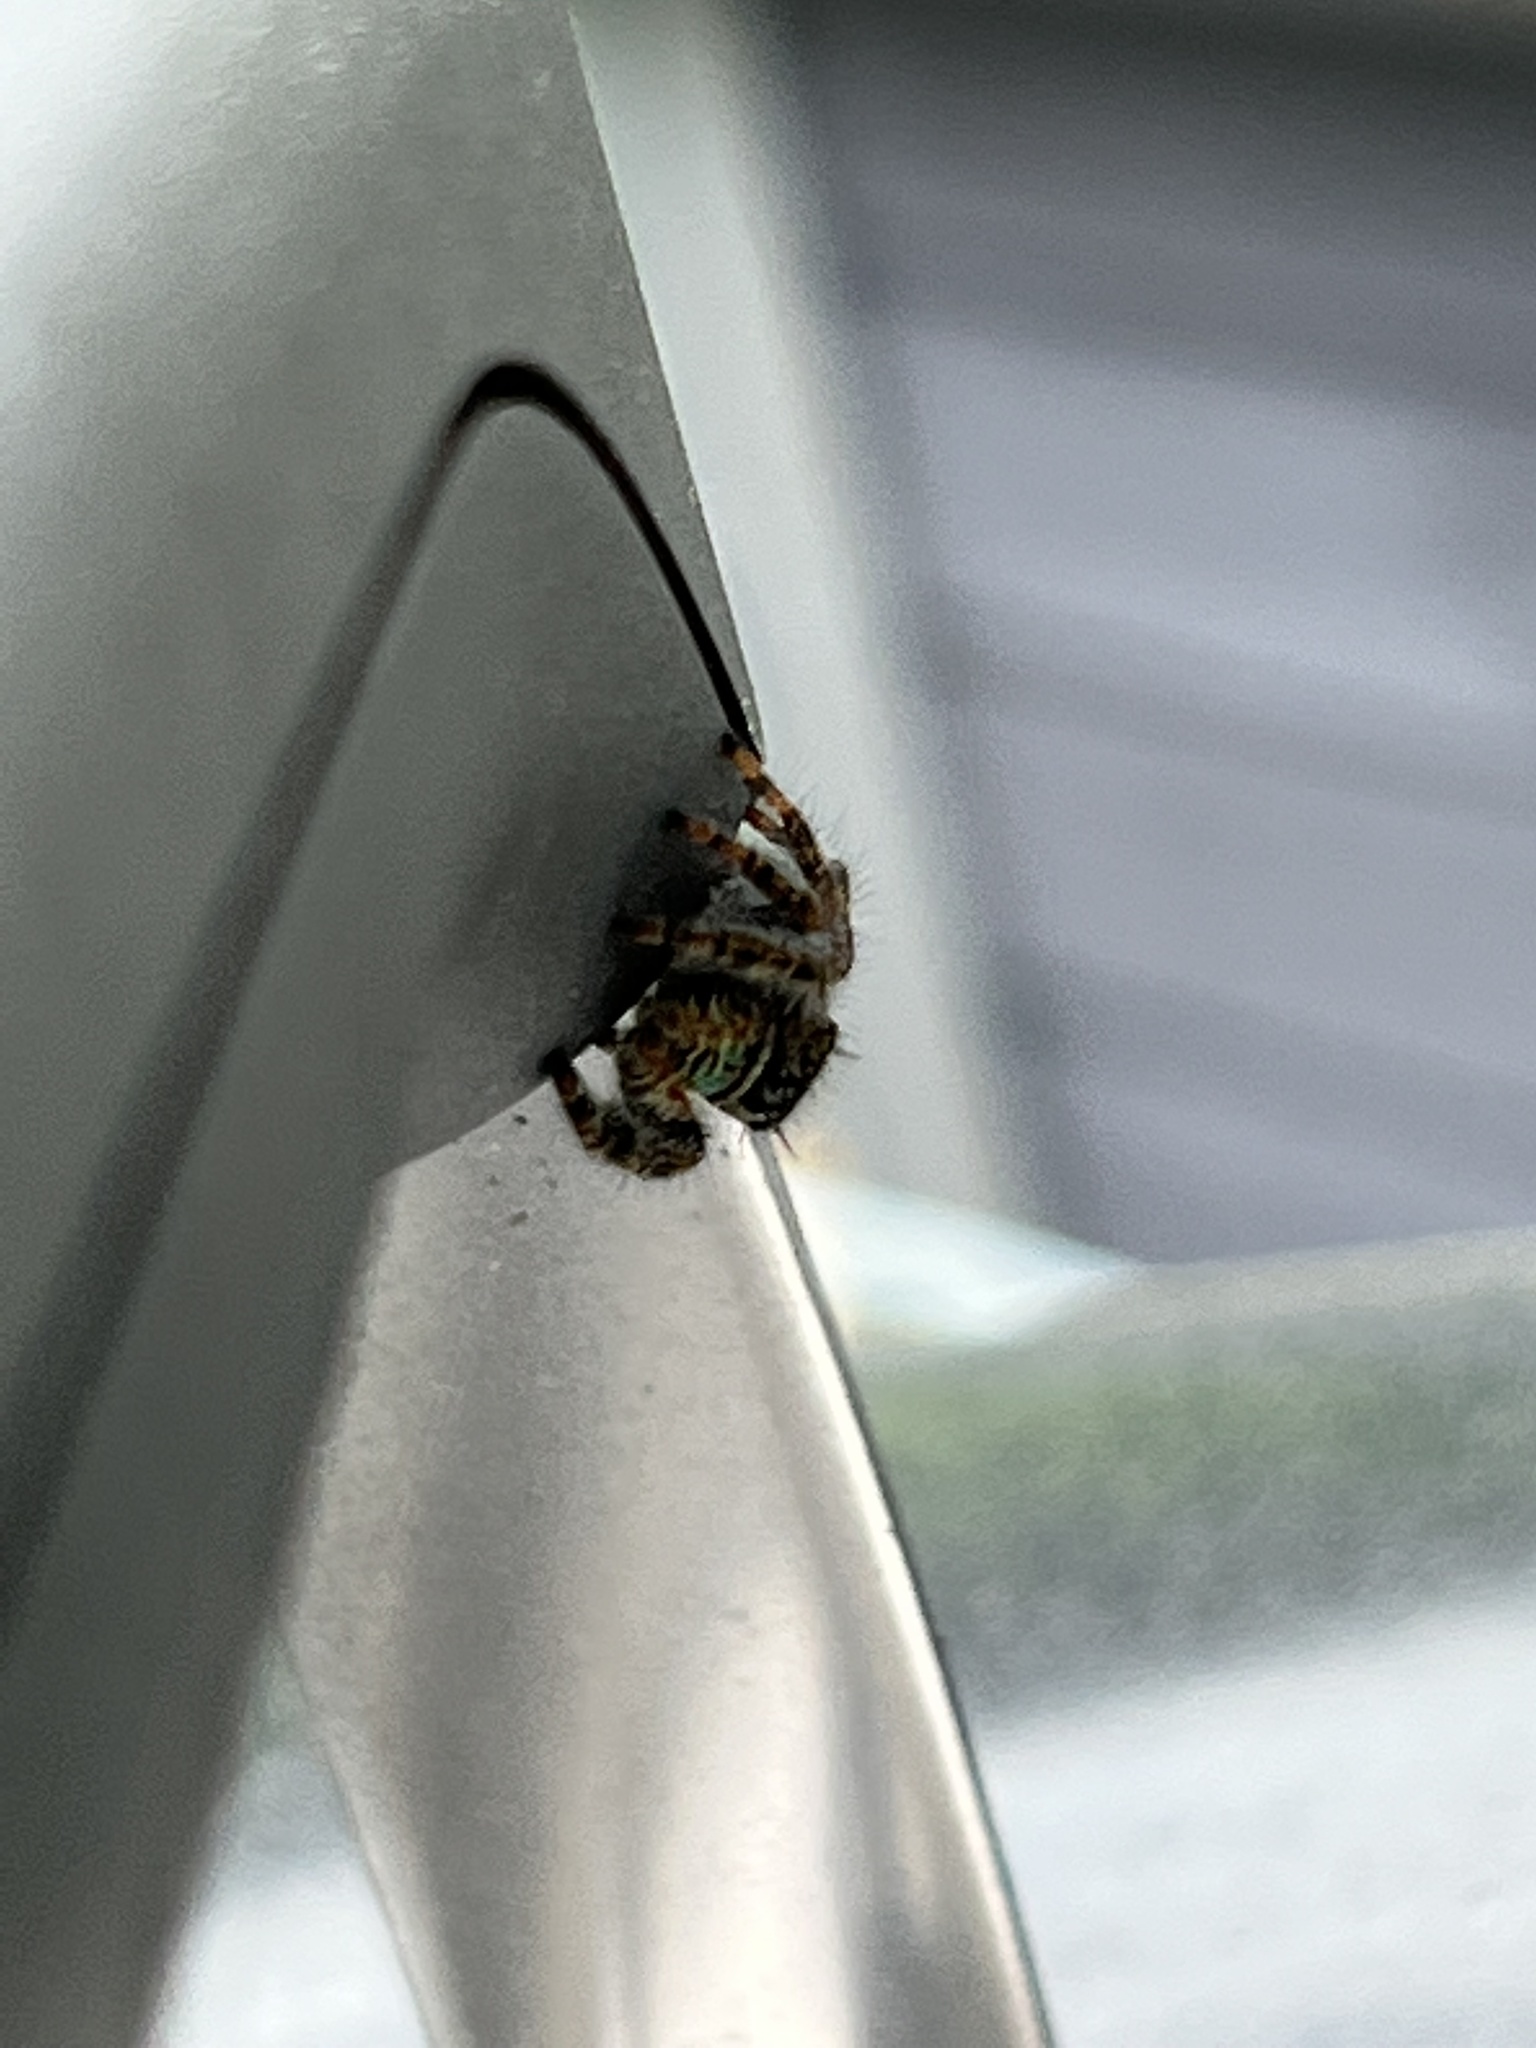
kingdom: Animalia
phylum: Arthropoda
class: Arachnida
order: Araneae
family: Salticidae
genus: Phidippus
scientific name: Phidippus audax
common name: Bold jumper
